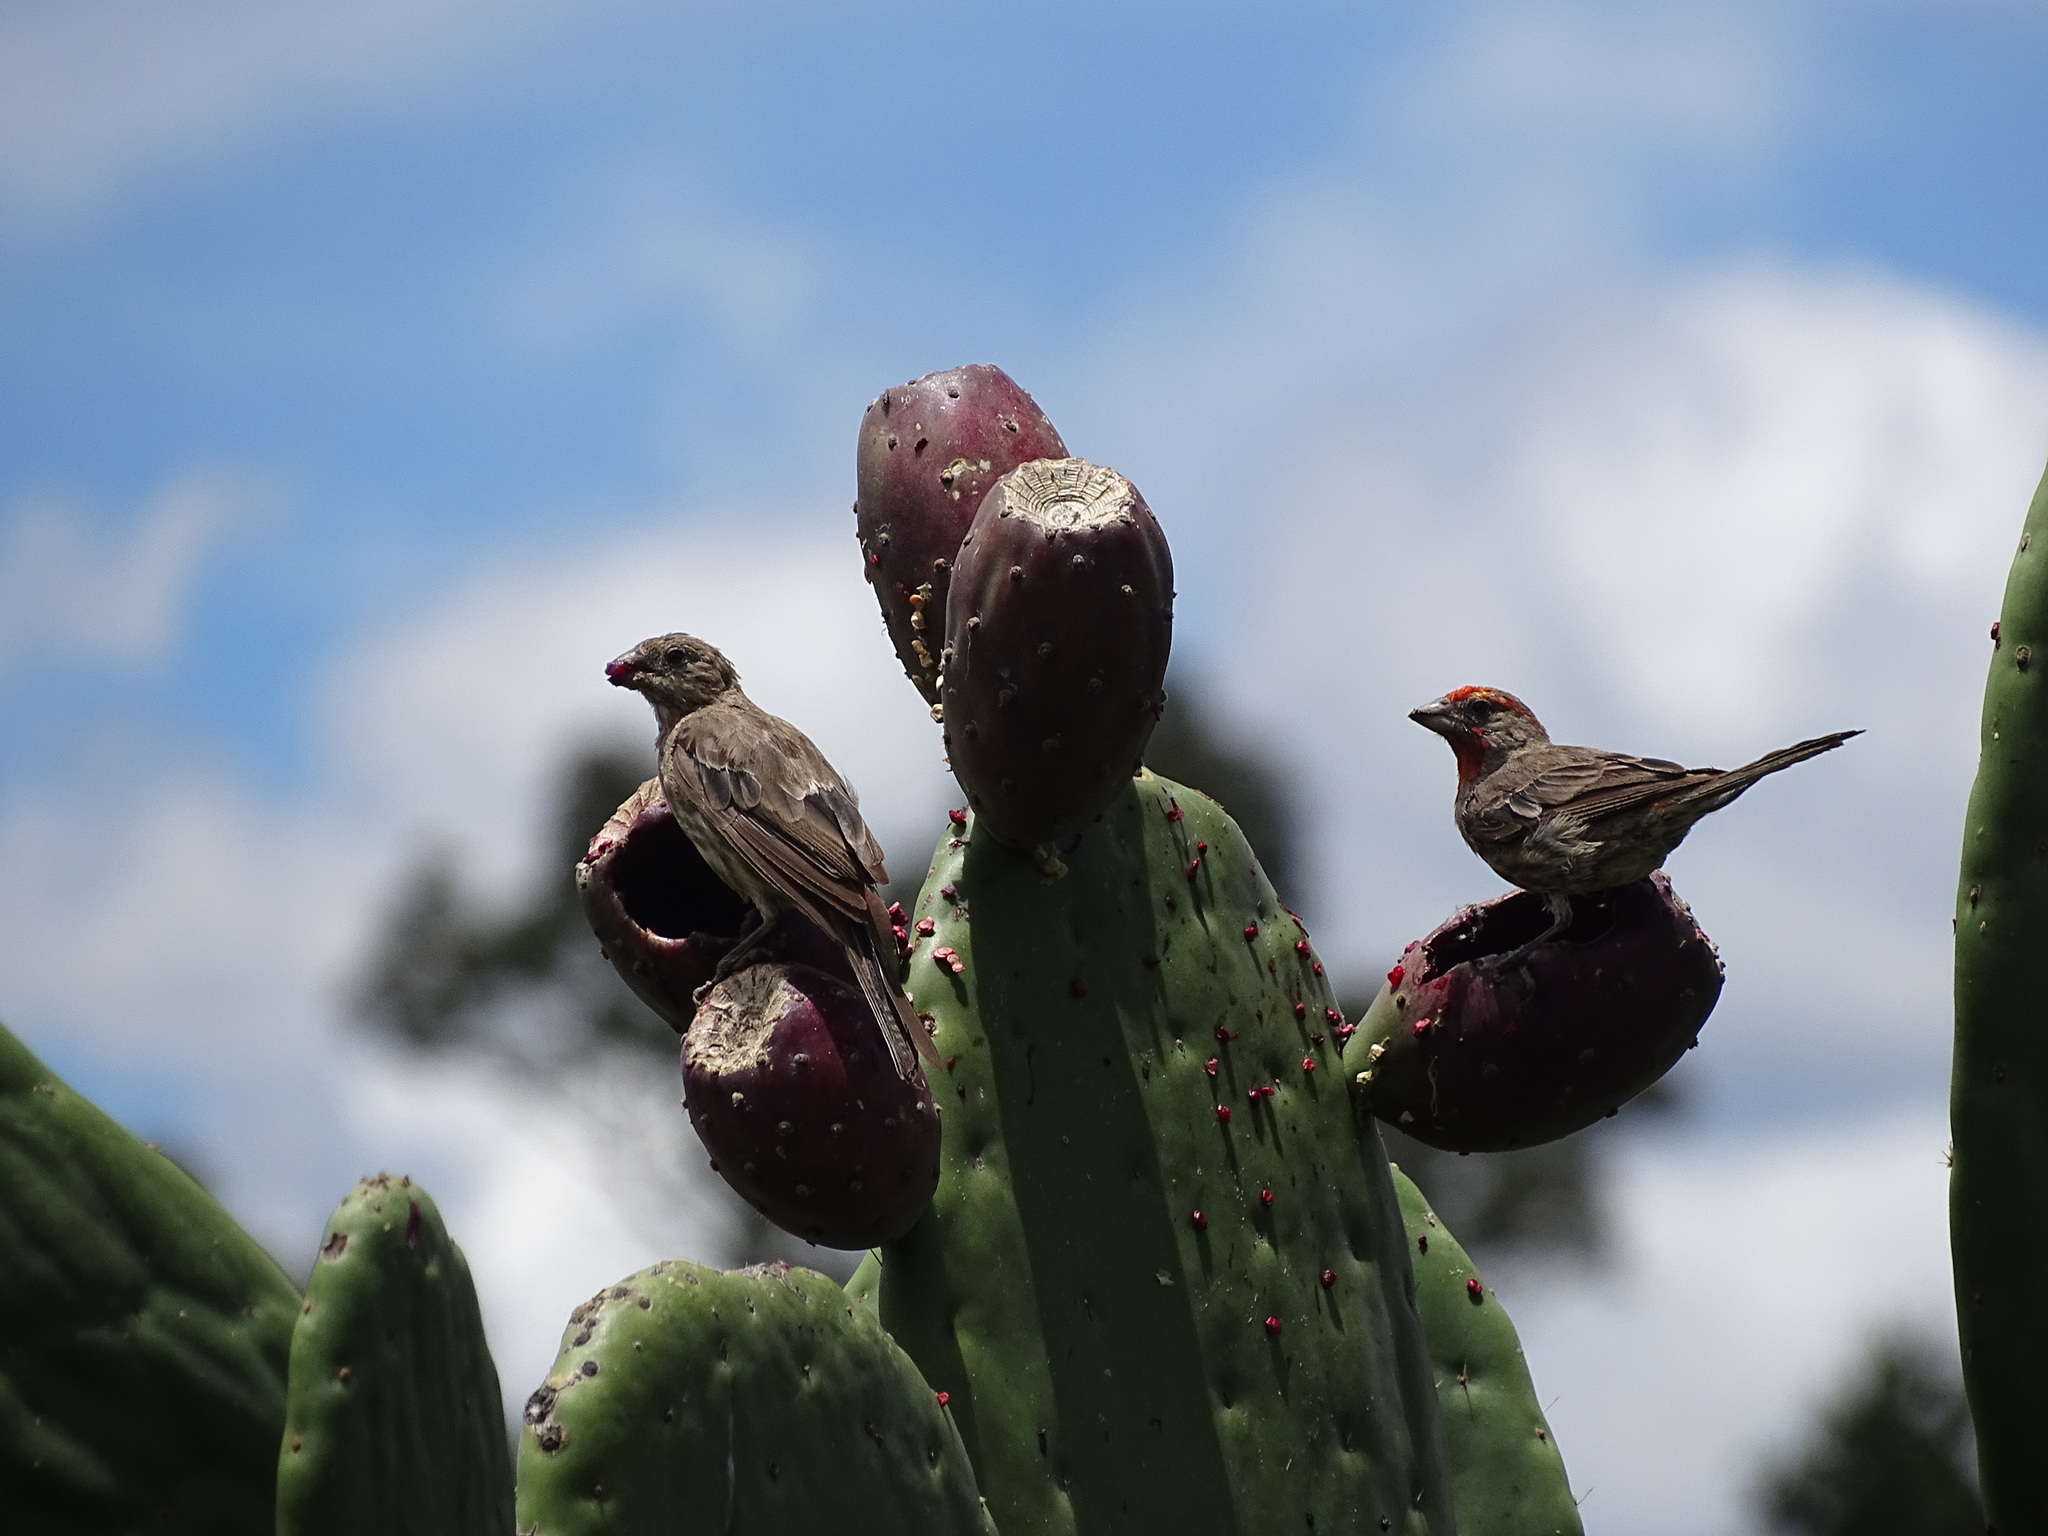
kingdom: Animalia
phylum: Chordata
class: Aves
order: Passeriformes
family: Fringillidae
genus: Haemorhous
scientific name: Haemorhous mexicanus
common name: House finch
